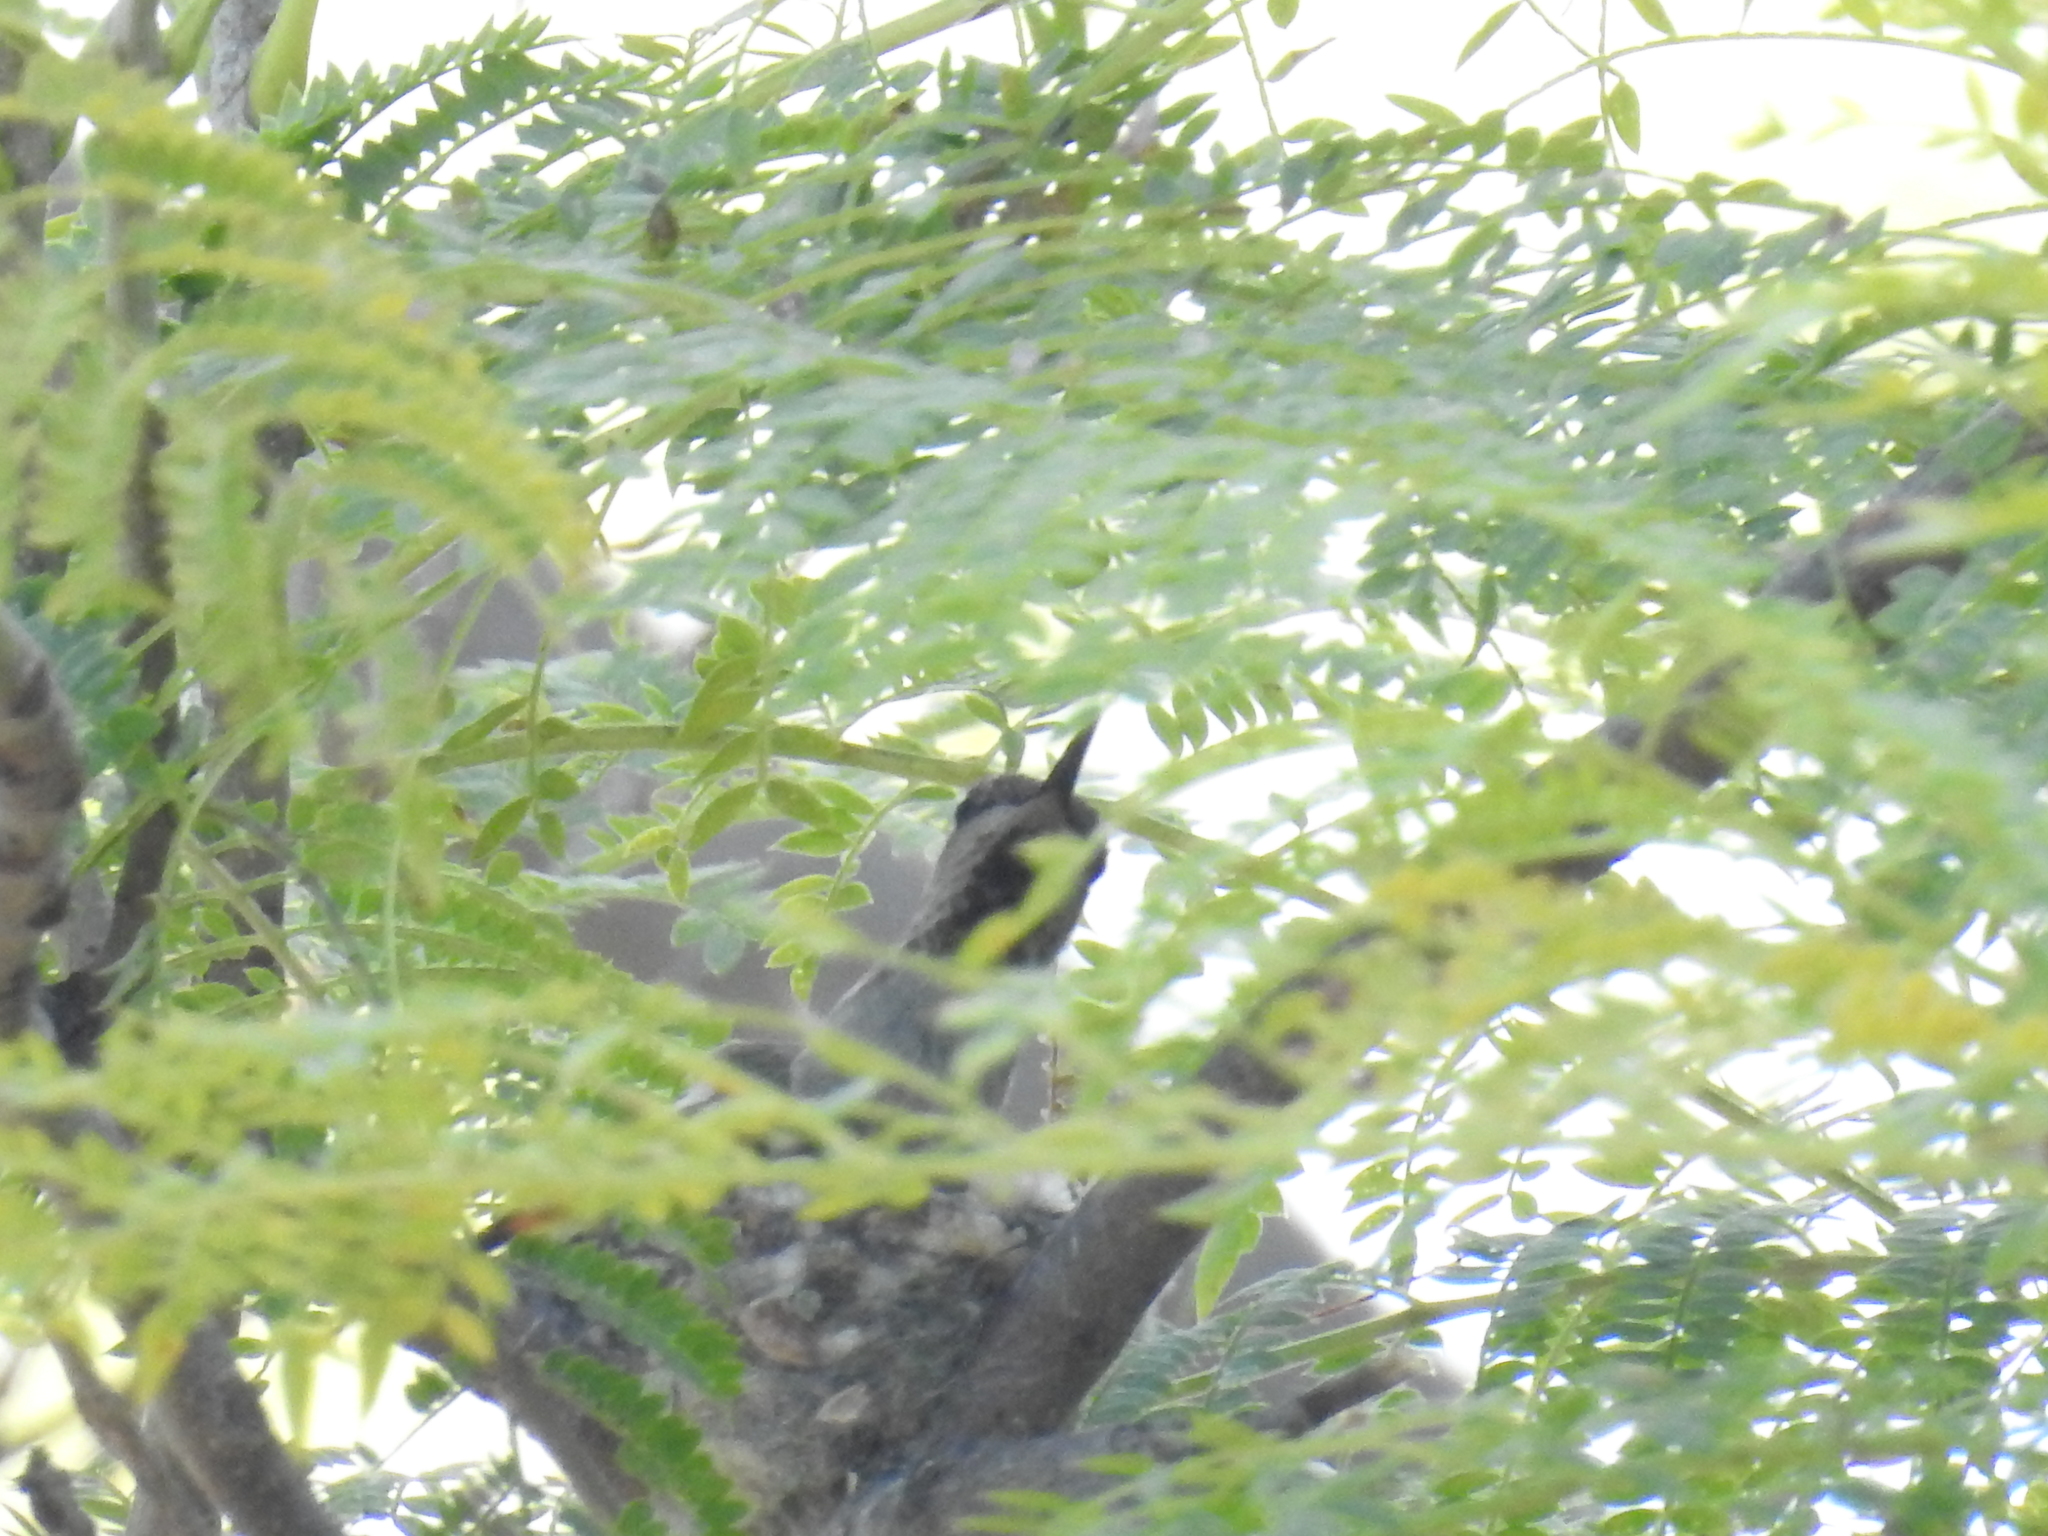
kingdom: Animalia
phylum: Chordata
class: Aves
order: Apodiformes
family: Trochilidae
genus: Calypte
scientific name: Calypte anna
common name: Anna's hummingbird
